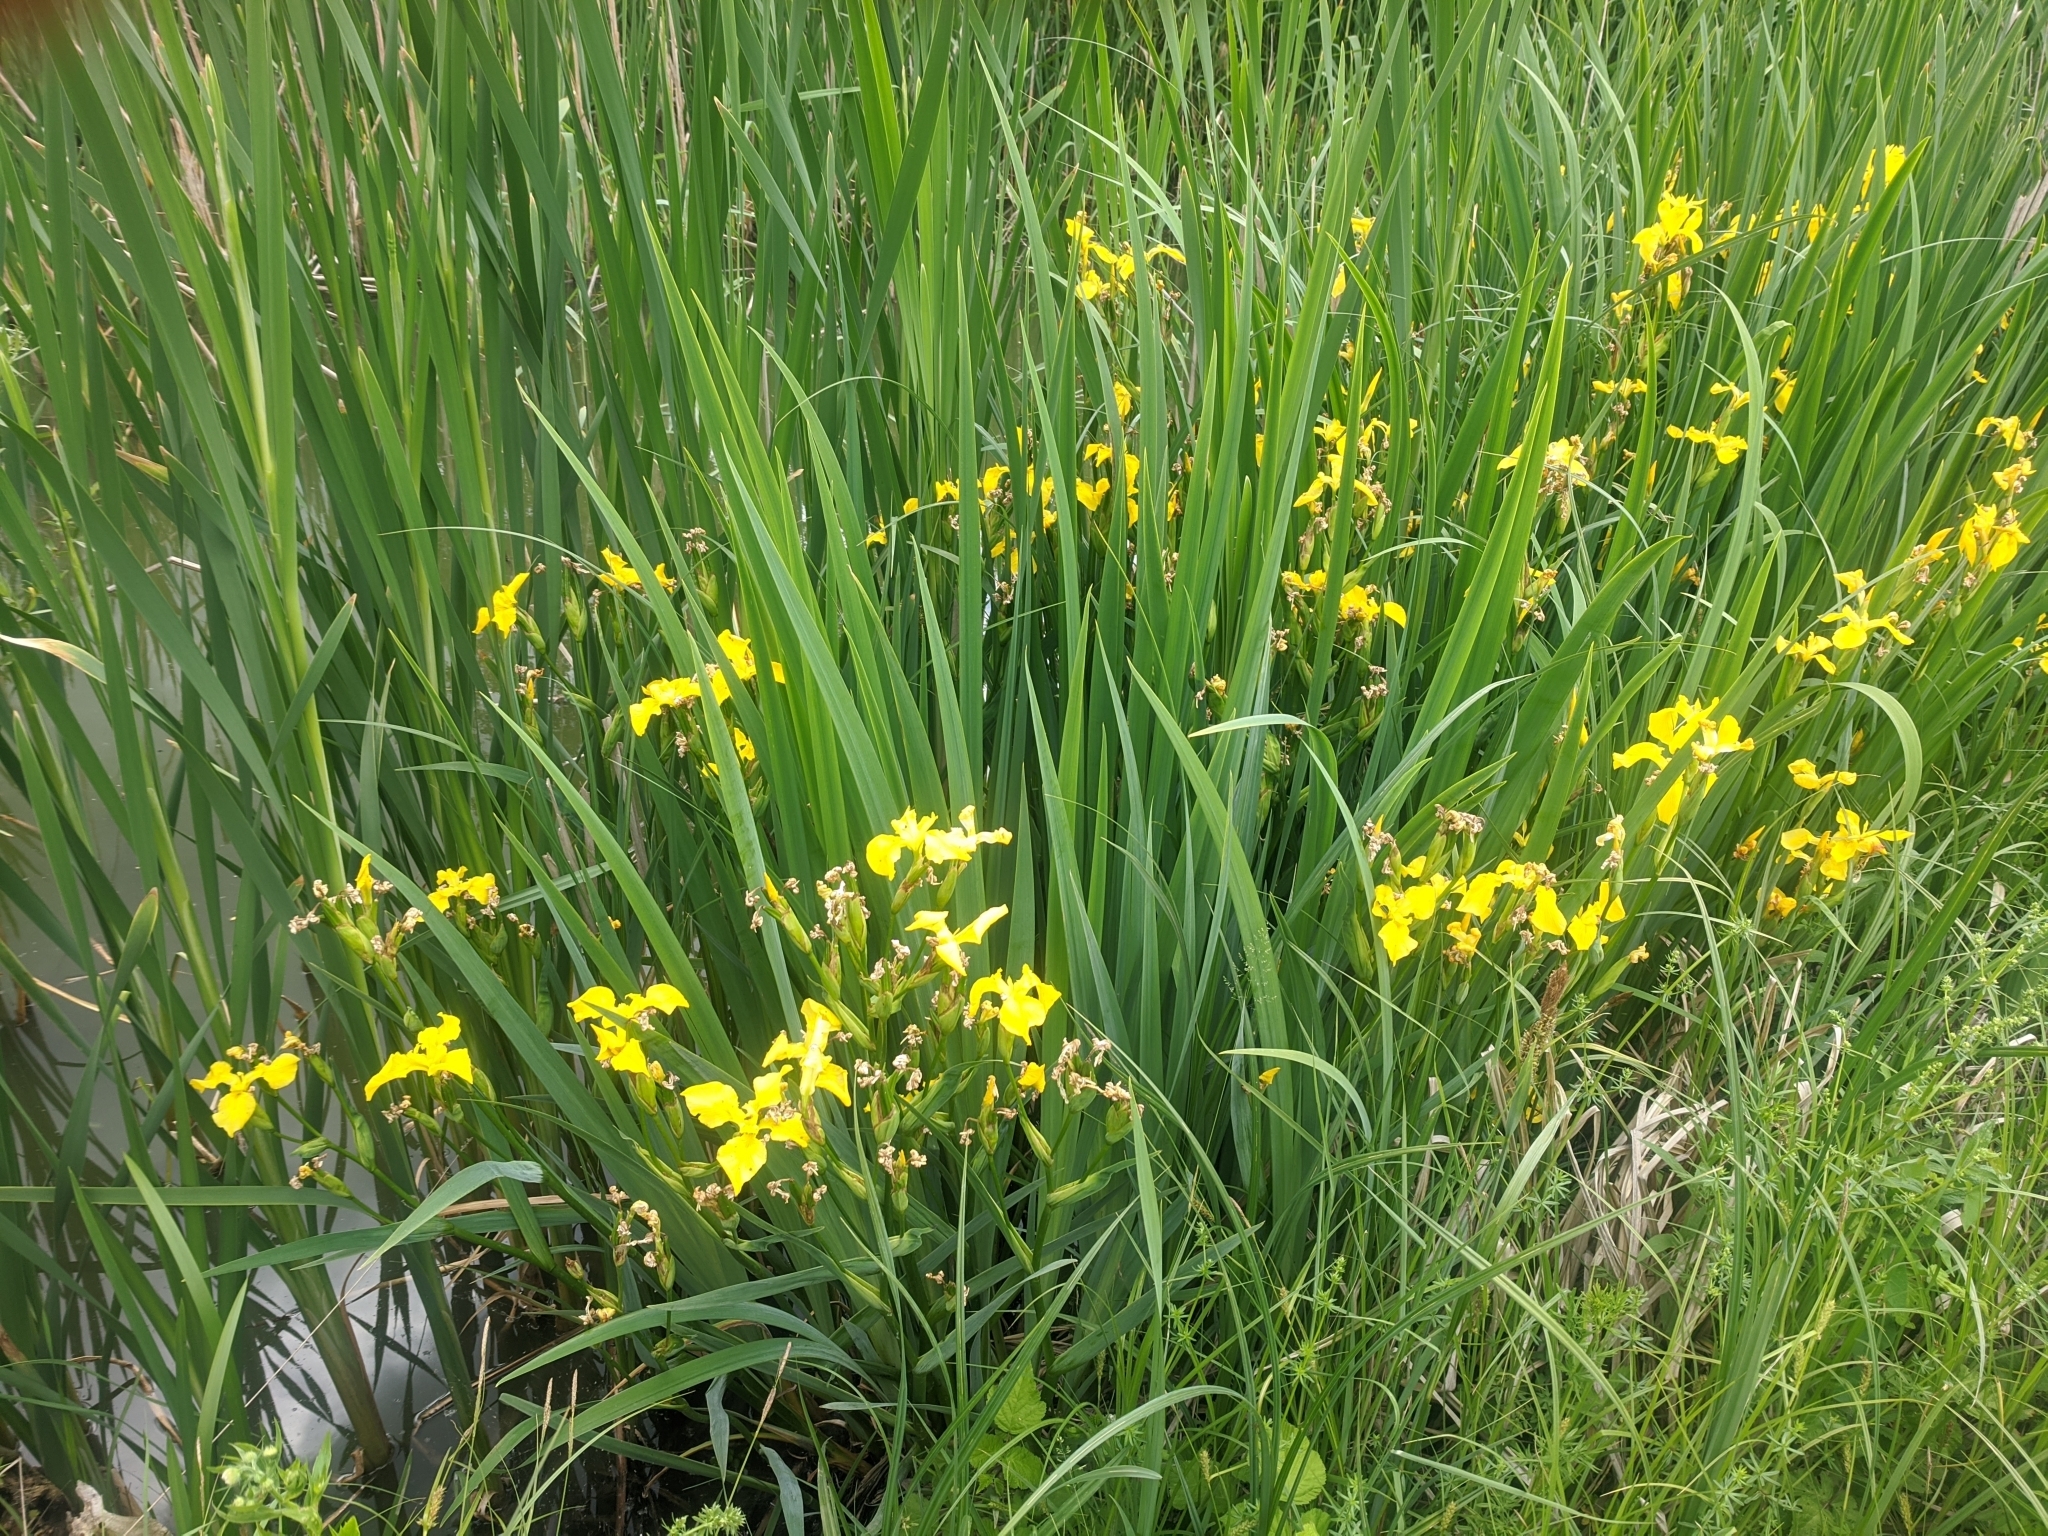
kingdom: Plantae
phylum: Tracheophyta
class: Liliopsida
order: Asparagales
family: Iridaceae
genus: Iris
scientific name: Iris pseudacorus
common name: Yellow flag
